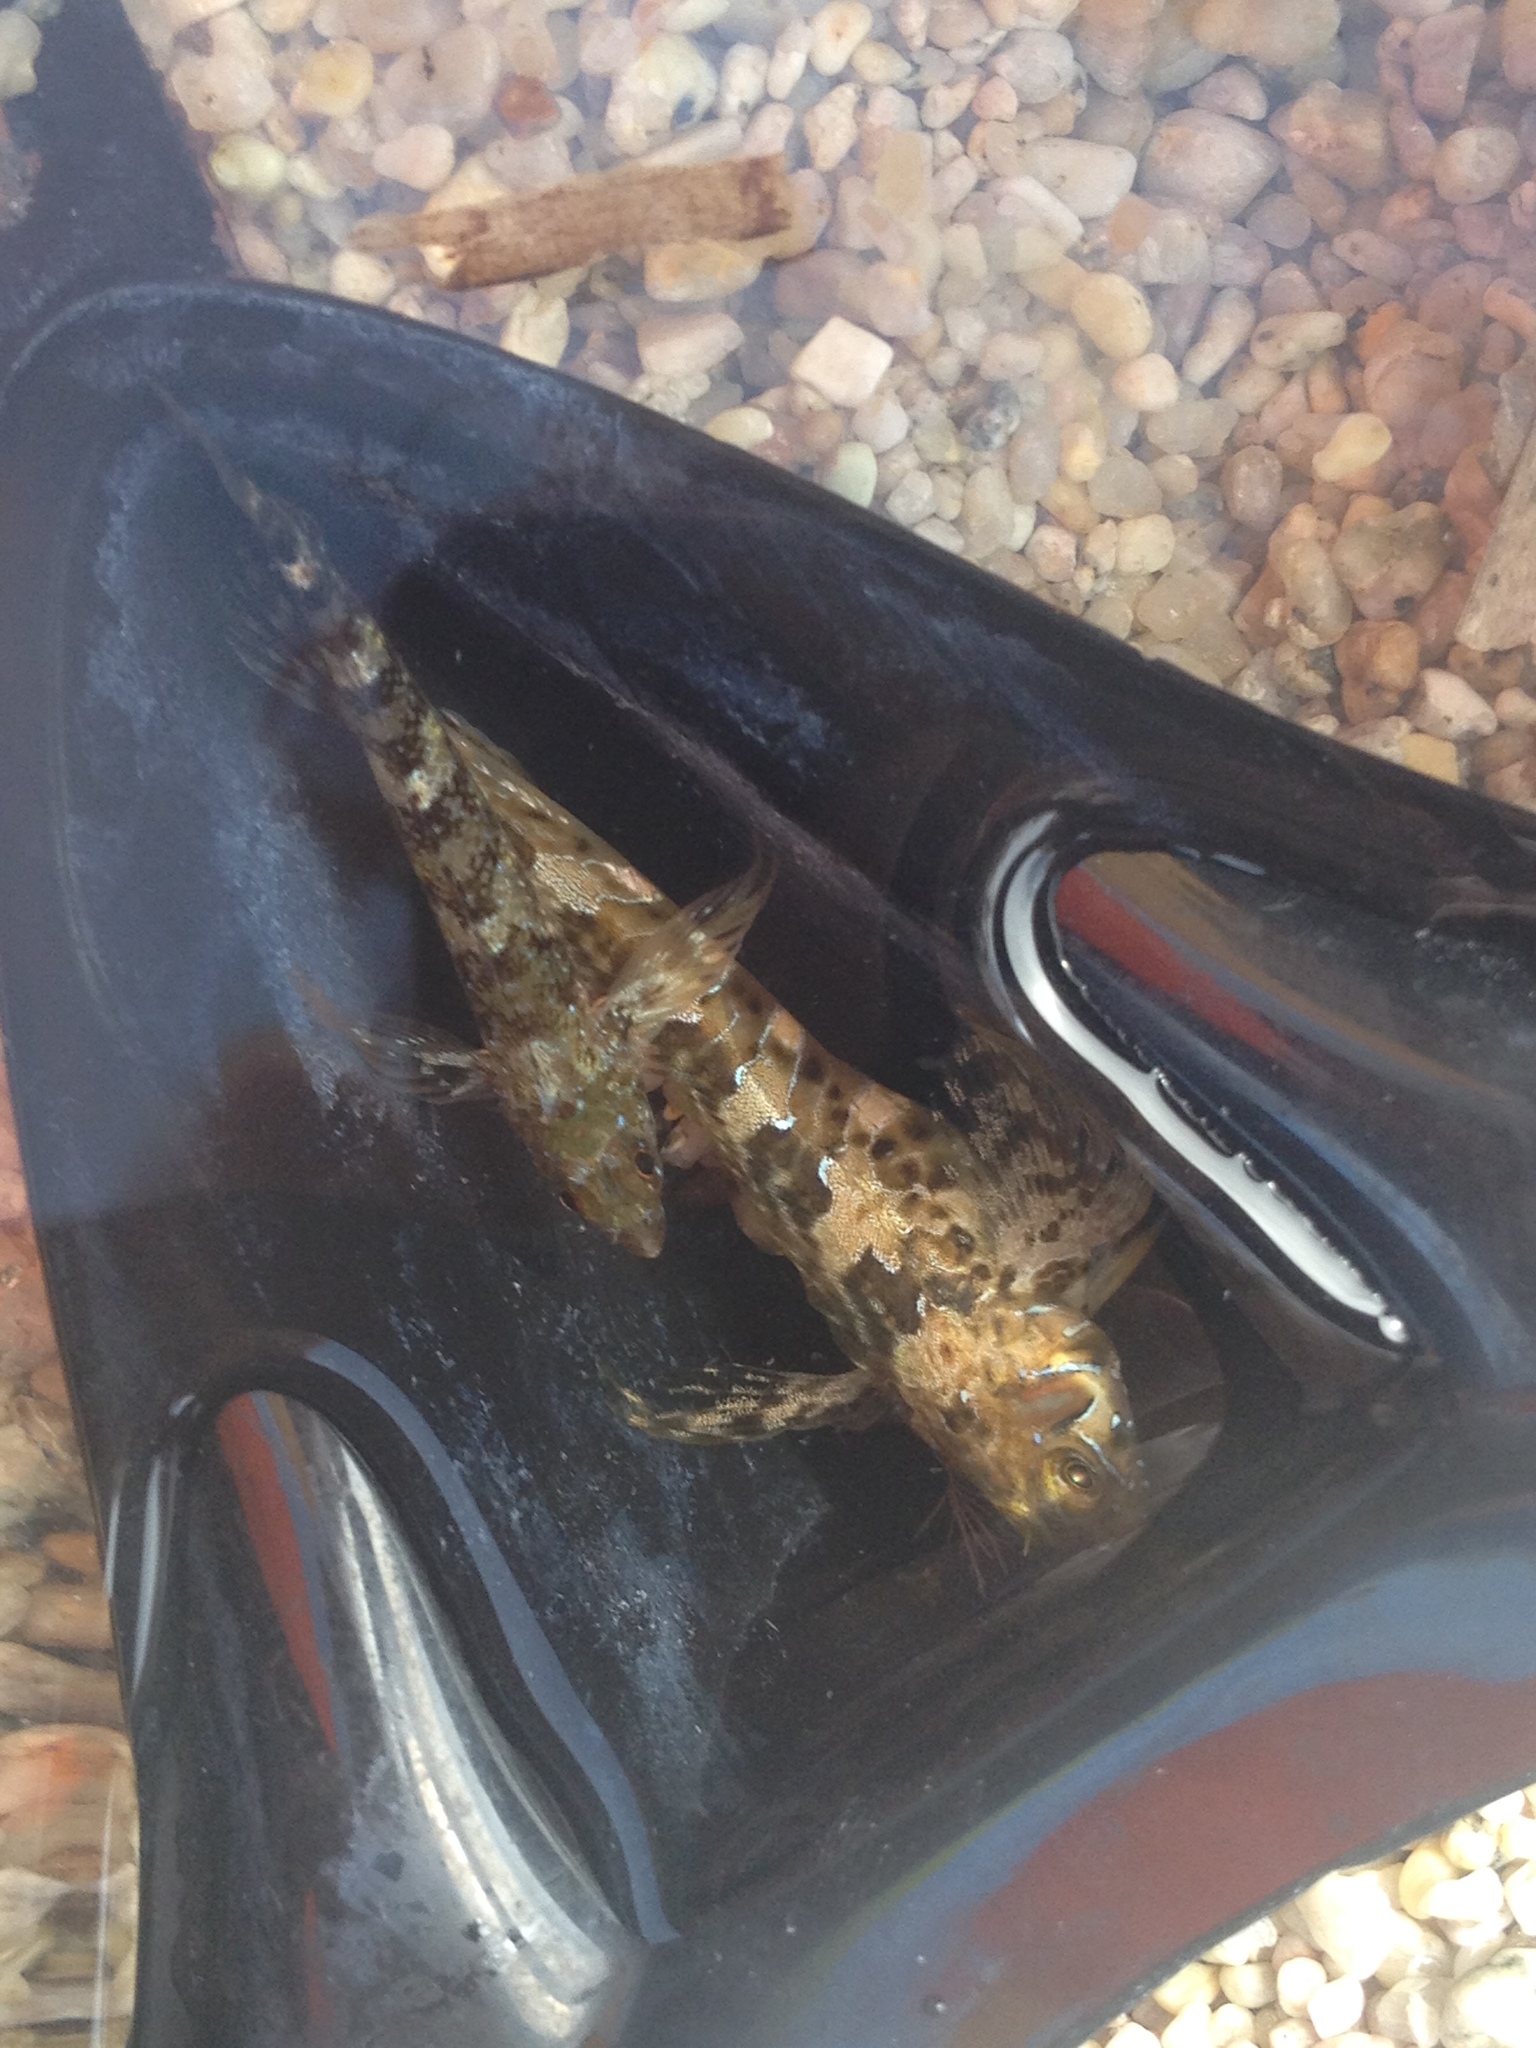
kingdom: Animalia
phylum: Chordata
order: Perciformes
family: Blenniidae
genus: Aidablennius
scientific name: Aidablennius sphynx
